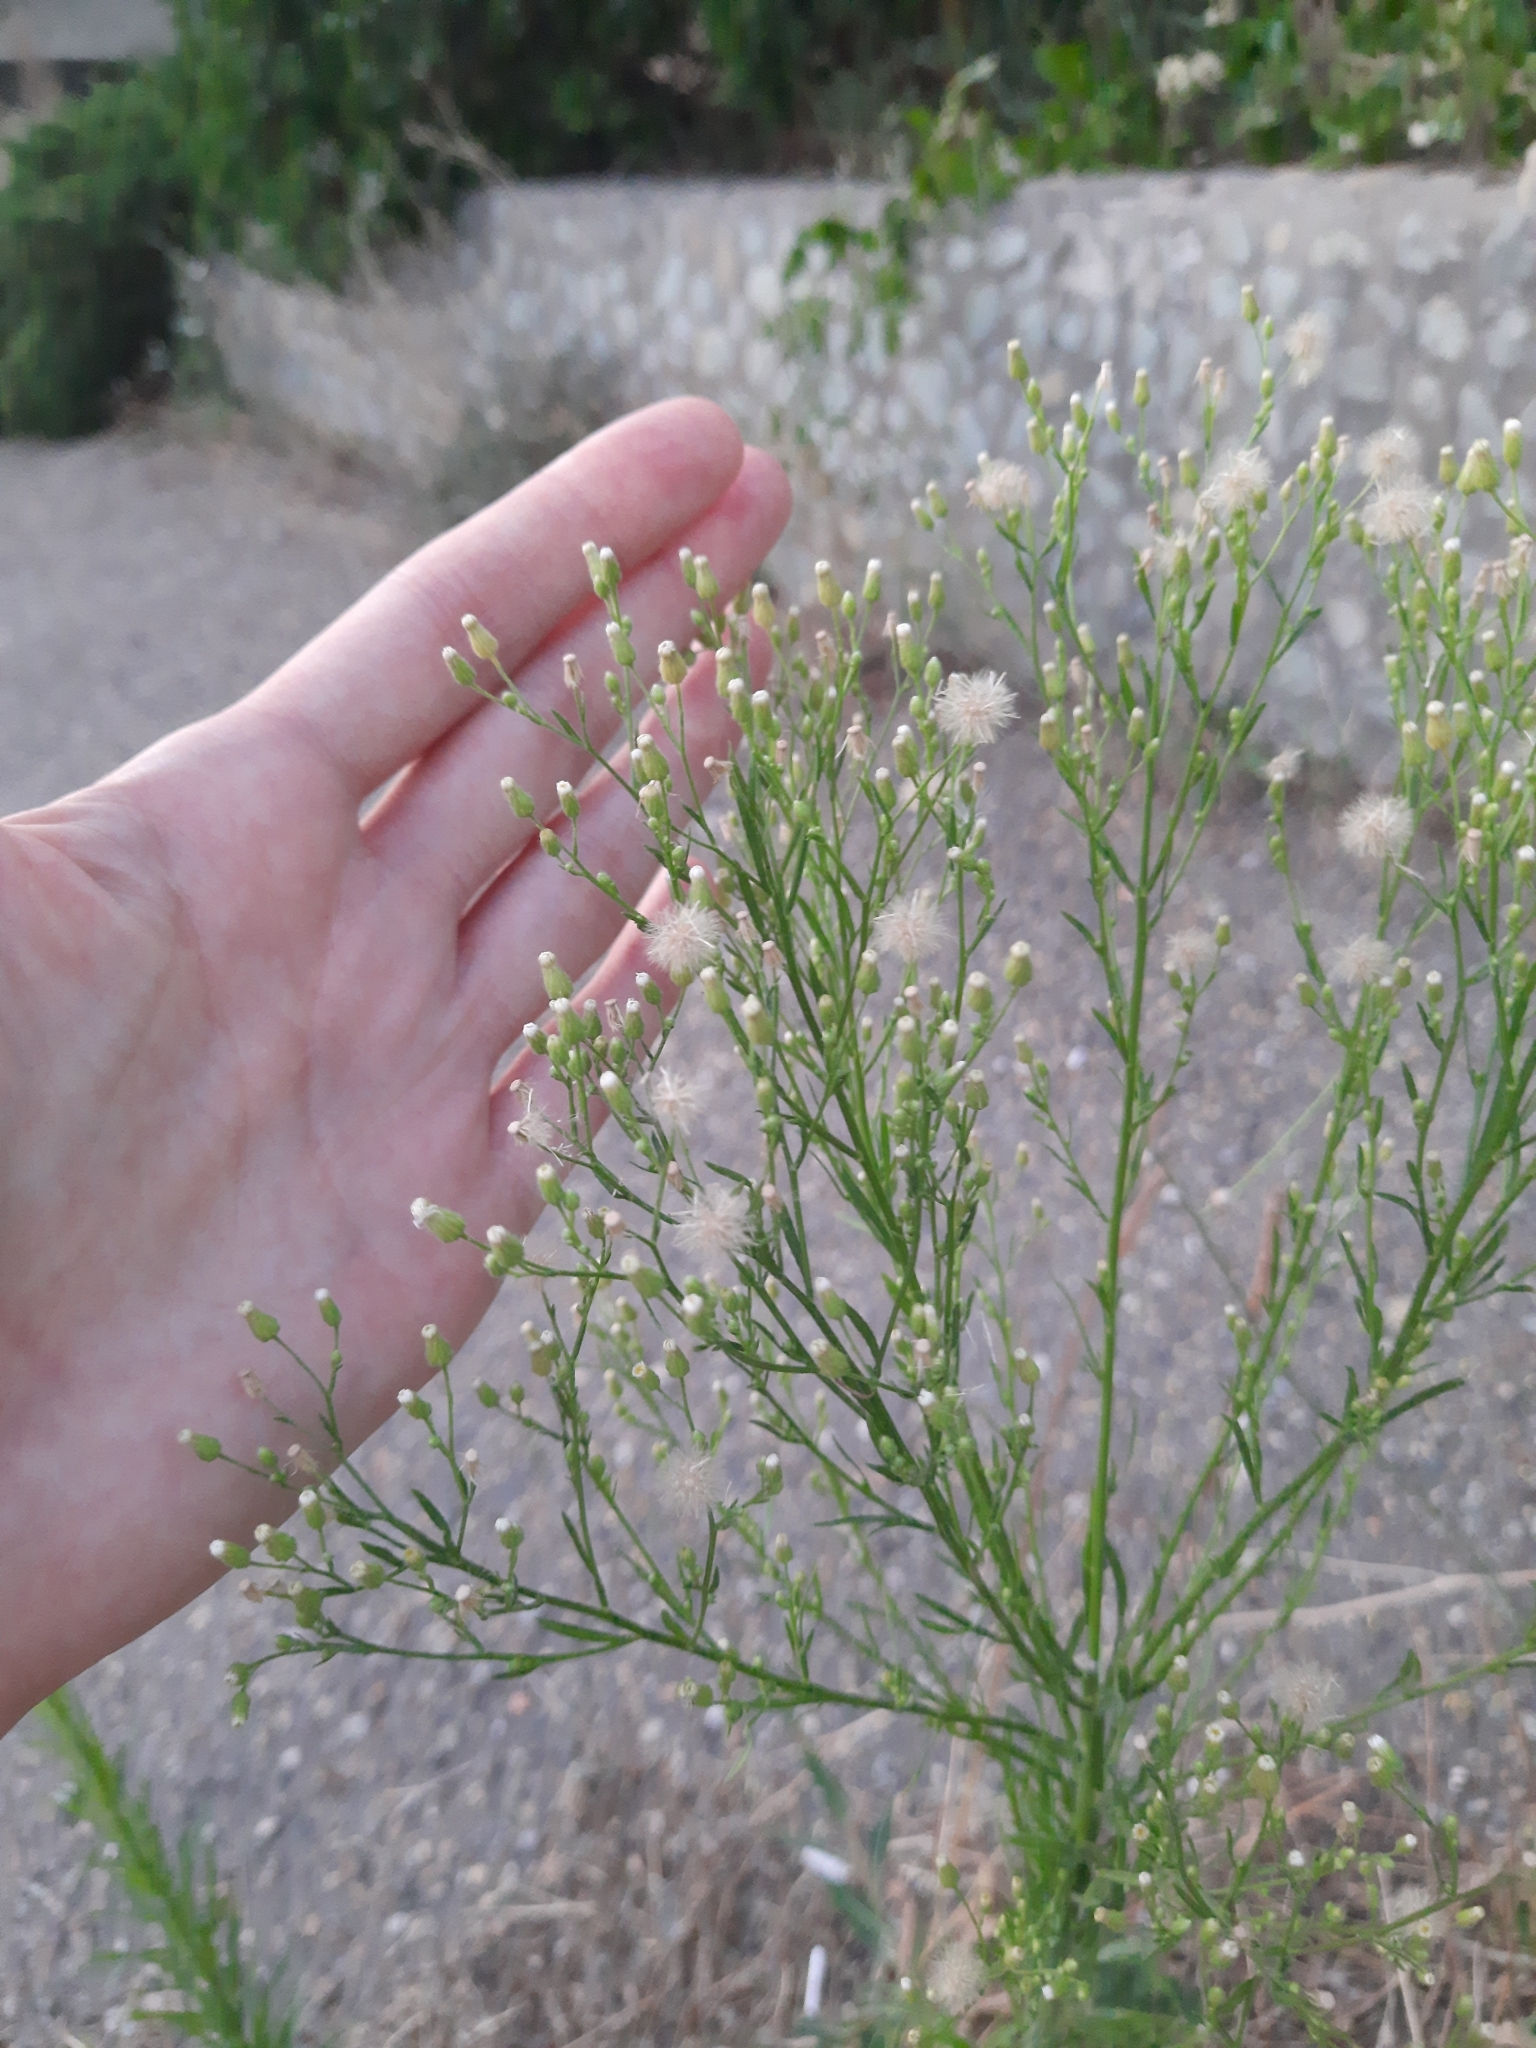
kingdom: Plantae
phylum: Tracheophyta
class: Magnoliopsida
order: Asterales
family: Asteraceae
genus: Erigeron
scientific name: Erigeron canadensis
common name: Canadian fleabane
